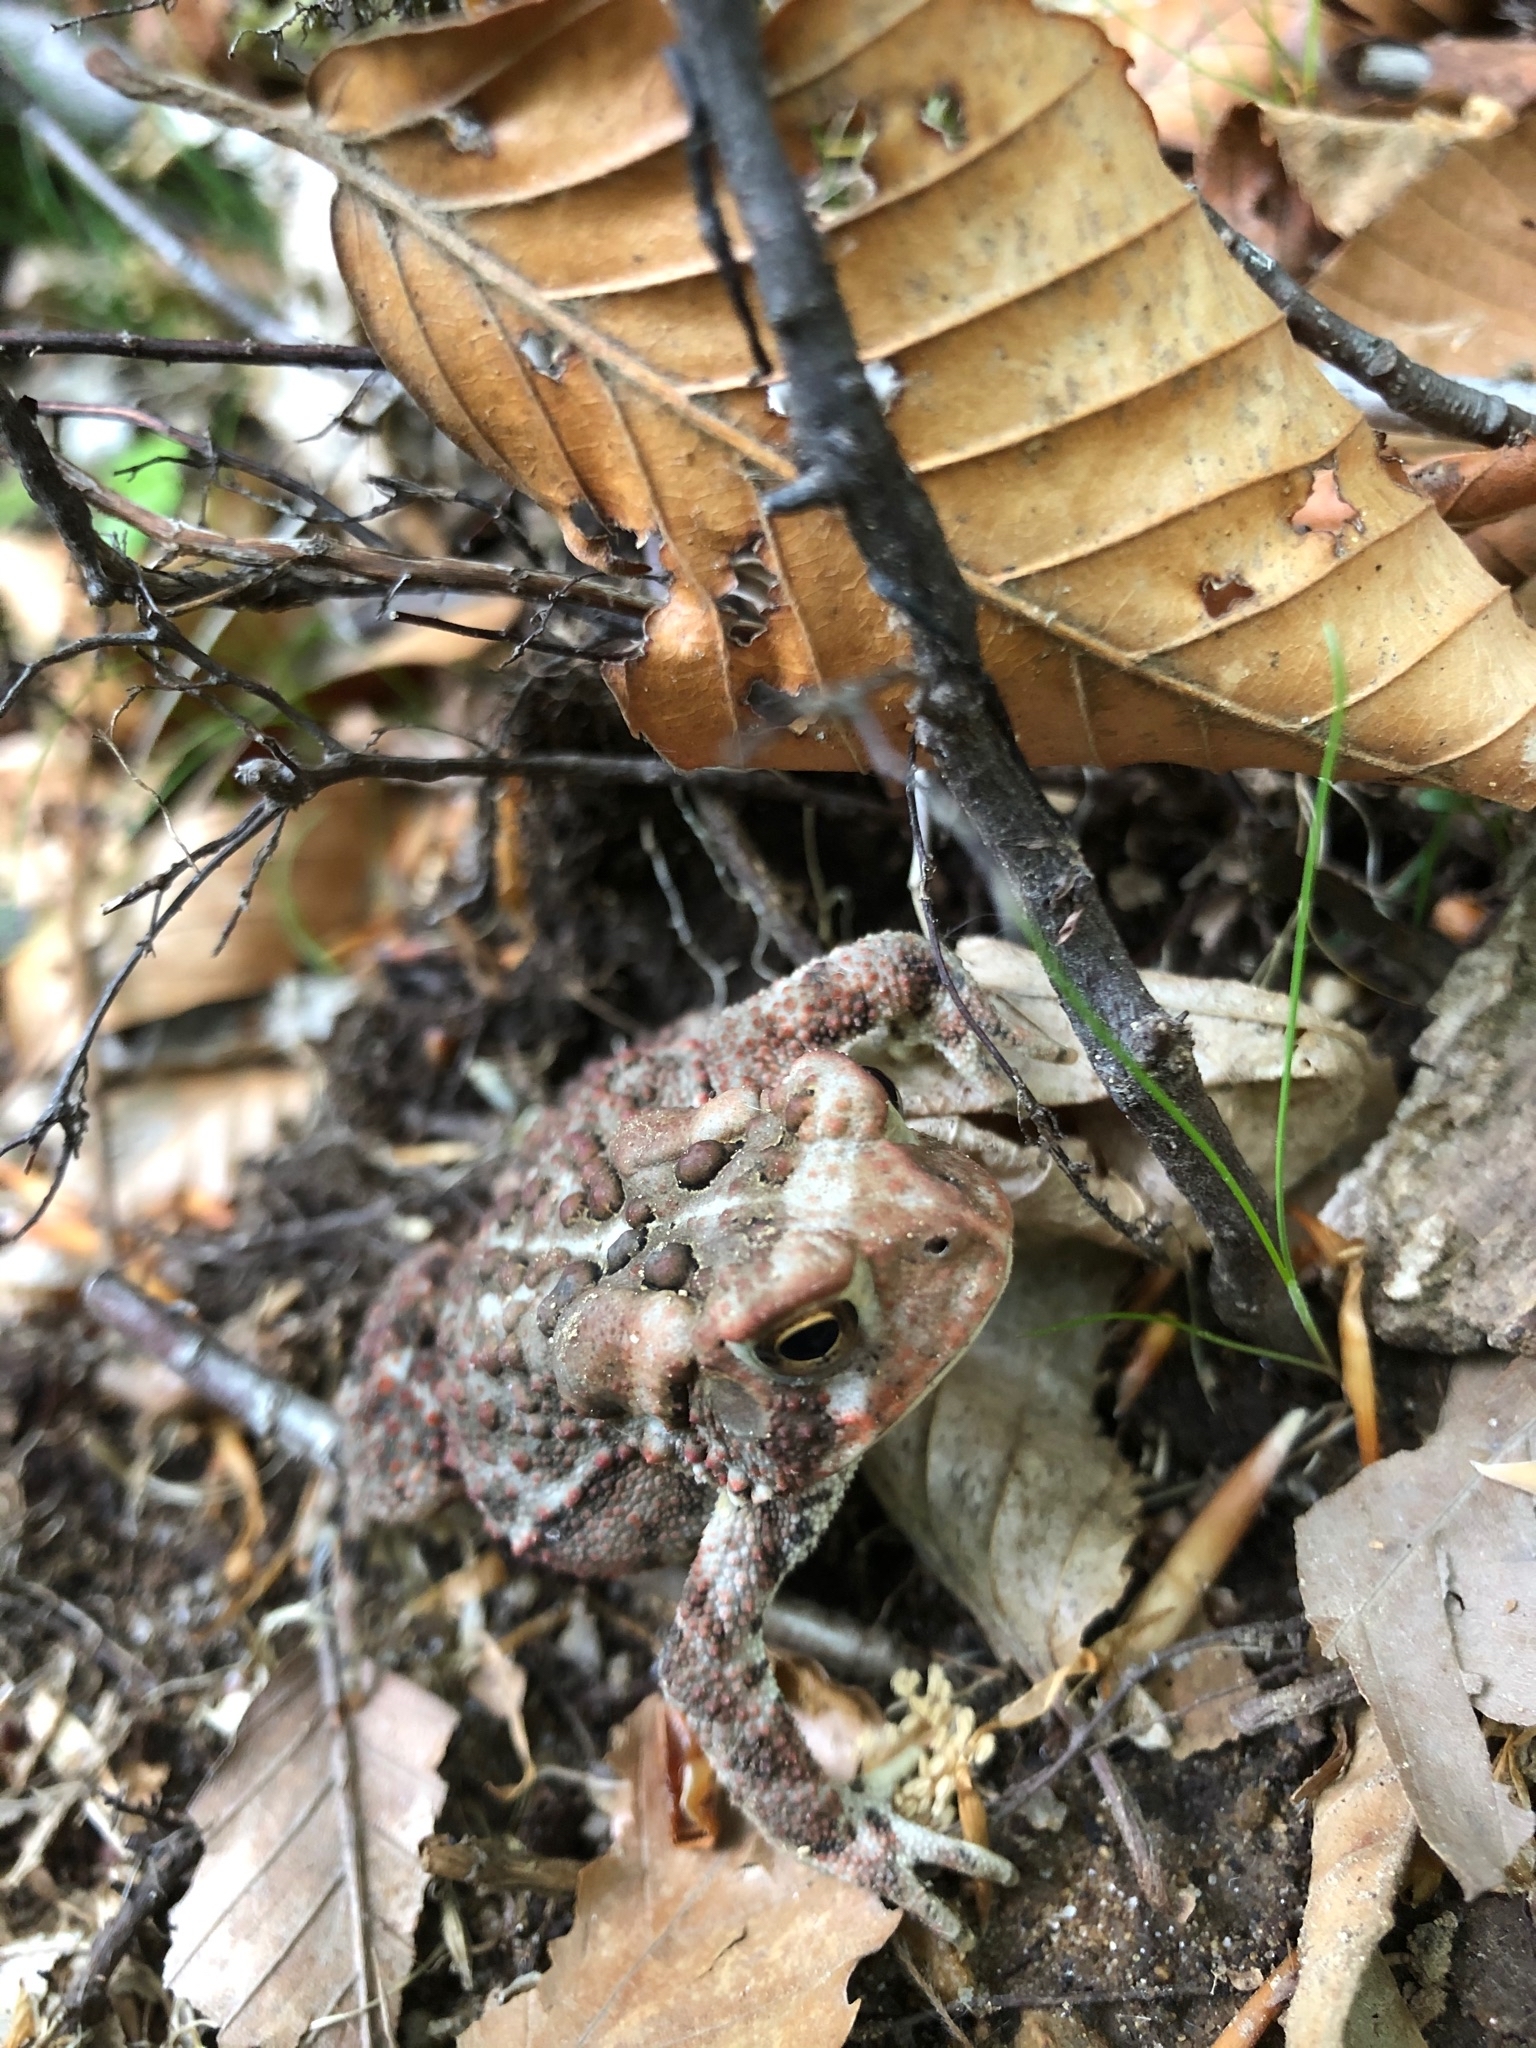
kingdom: Animalia
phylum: Chordata
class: Amphibia
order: Anura
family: Bufonidae
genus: Anaxyrus
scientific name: Anaxyrus americanus
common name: American toad
